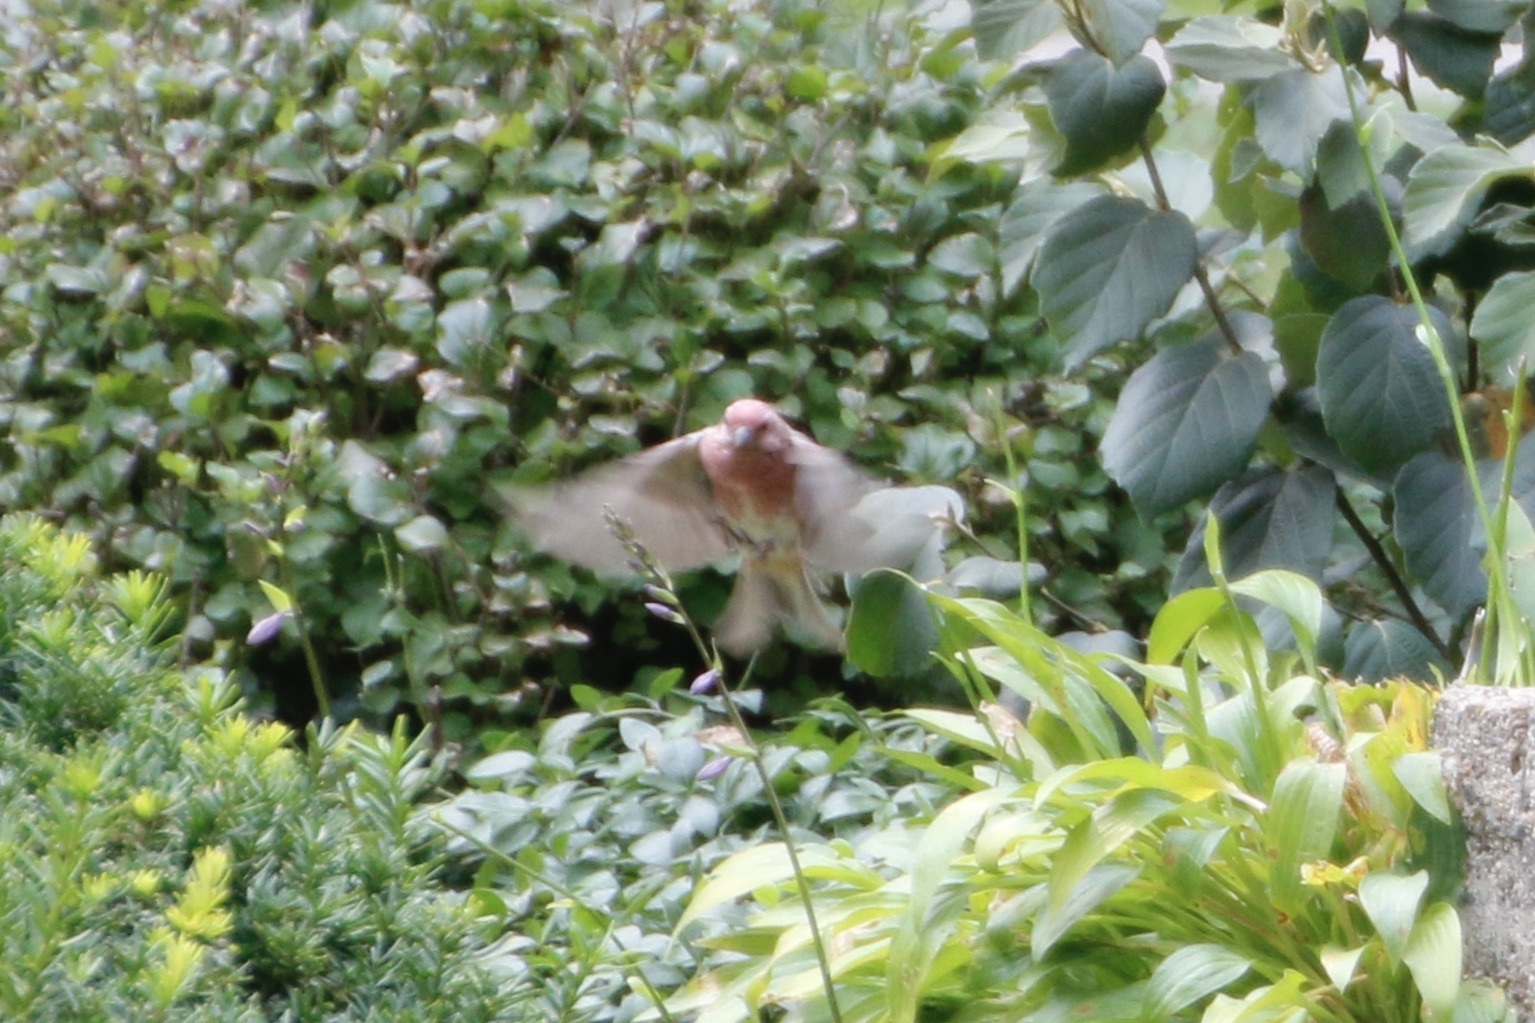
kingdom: Animalia
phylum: Chordata
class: Aves
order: Passeriformes
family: Fringillidae
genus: Haemorhous
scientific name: Haemorhous purpureus
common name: Purple finch
